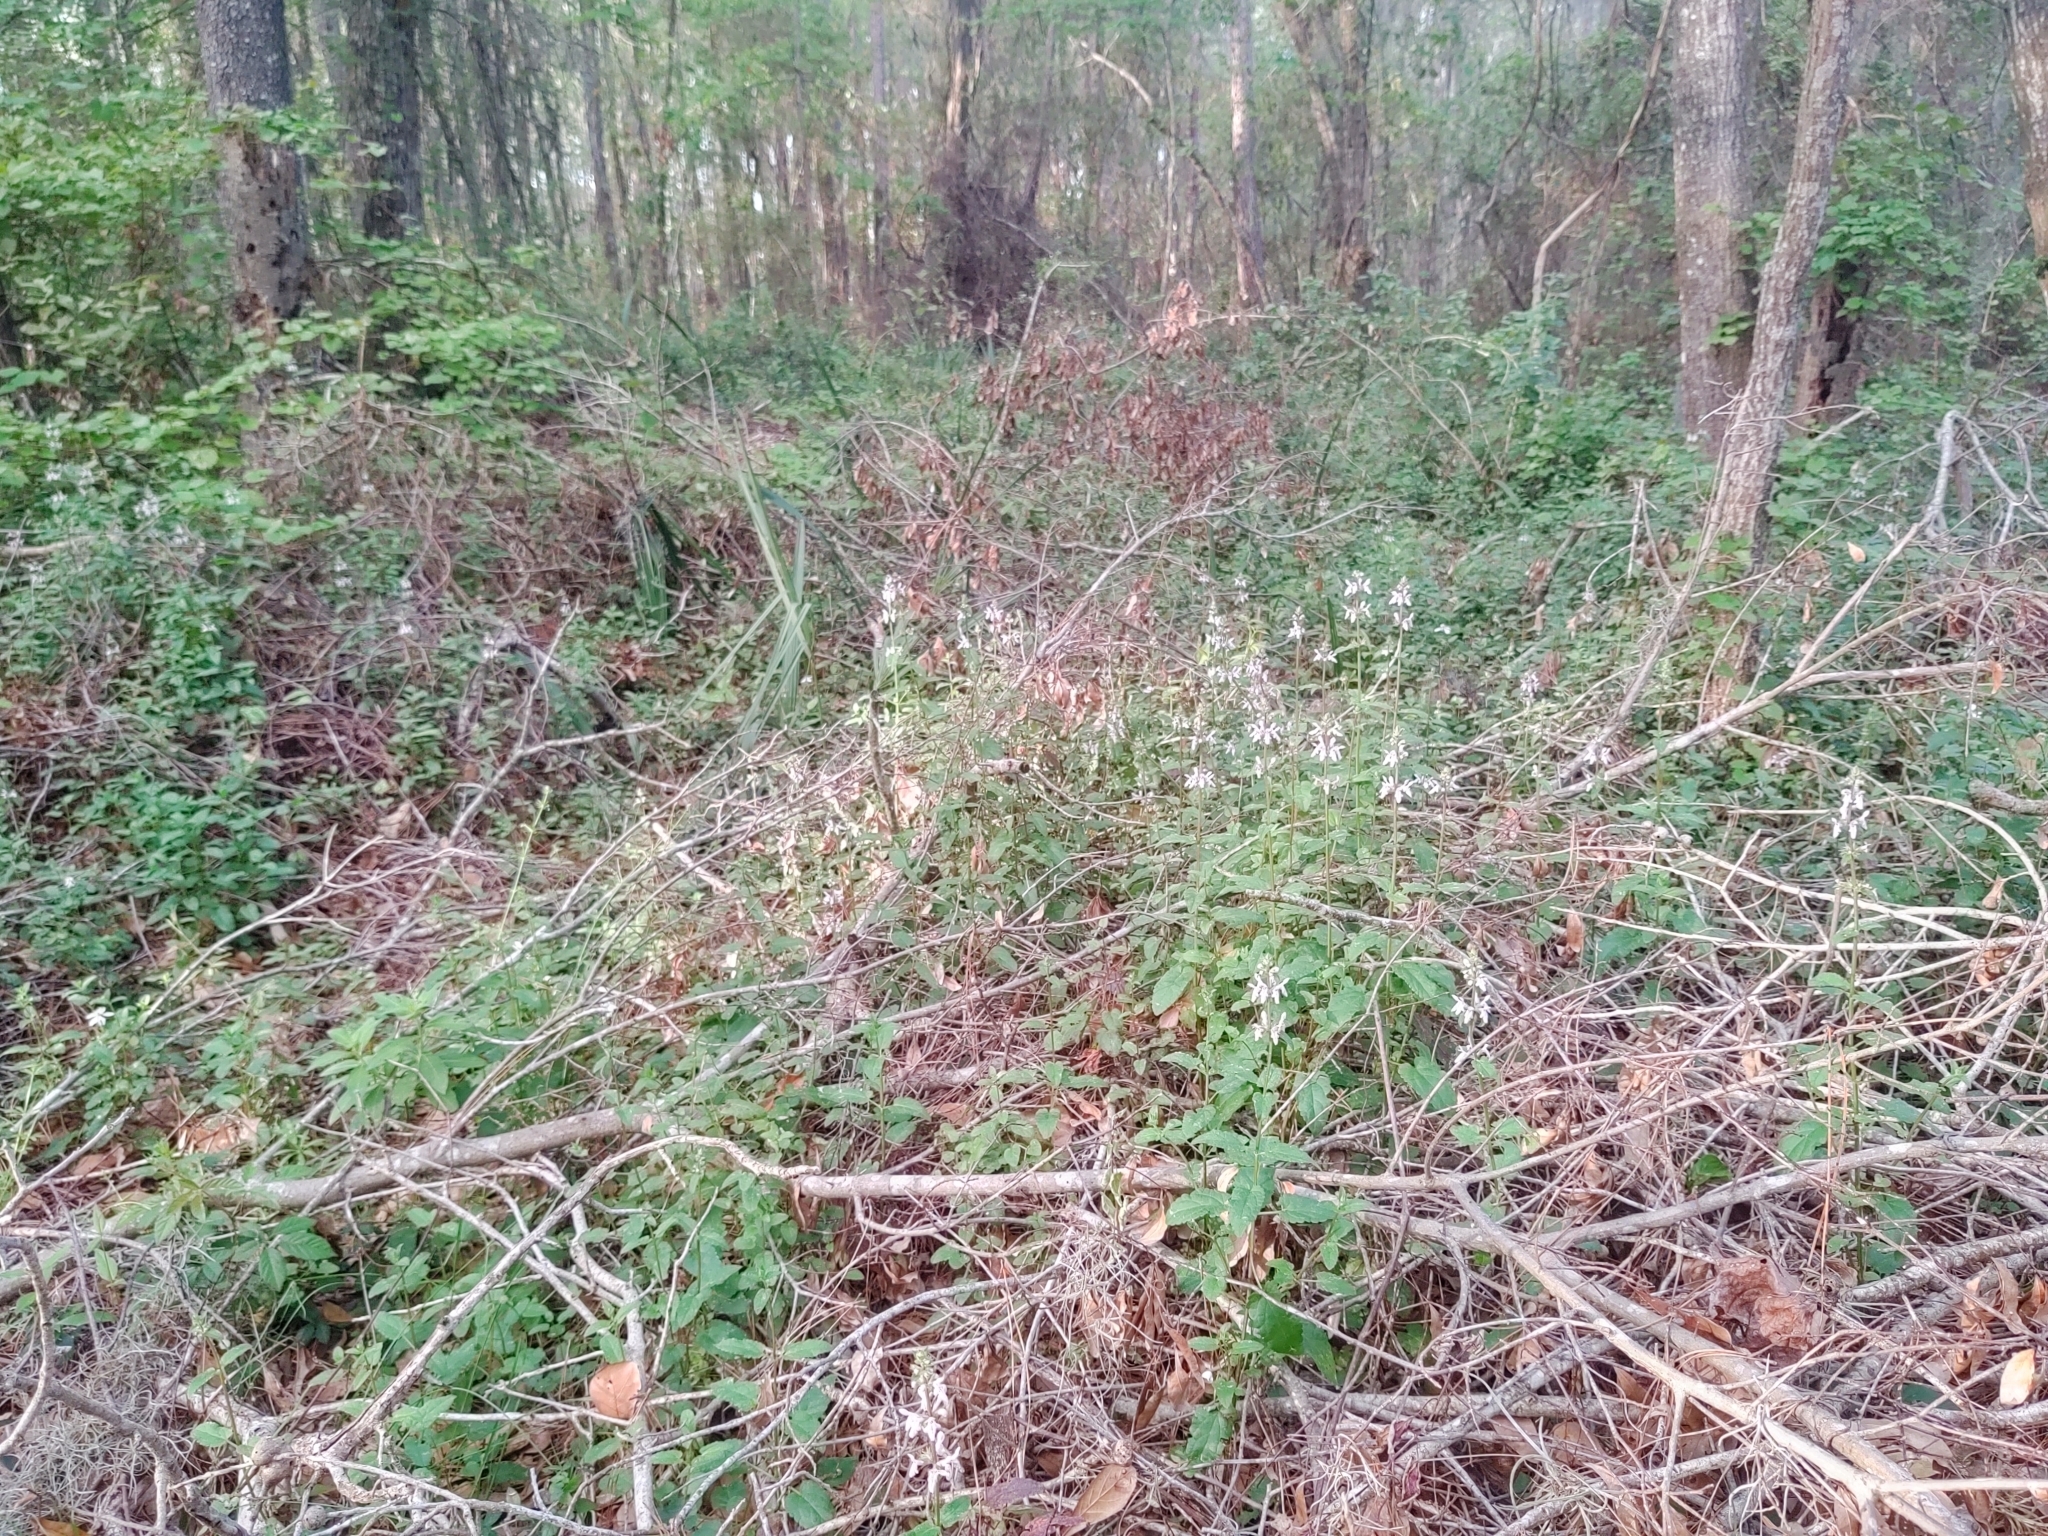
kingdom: Plantae
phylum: Tracheophyta
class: Magnoliopsida
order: Lamiales
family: Lamiaceae
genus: Stachys
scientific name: Stachys floridana
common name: Florida betony
